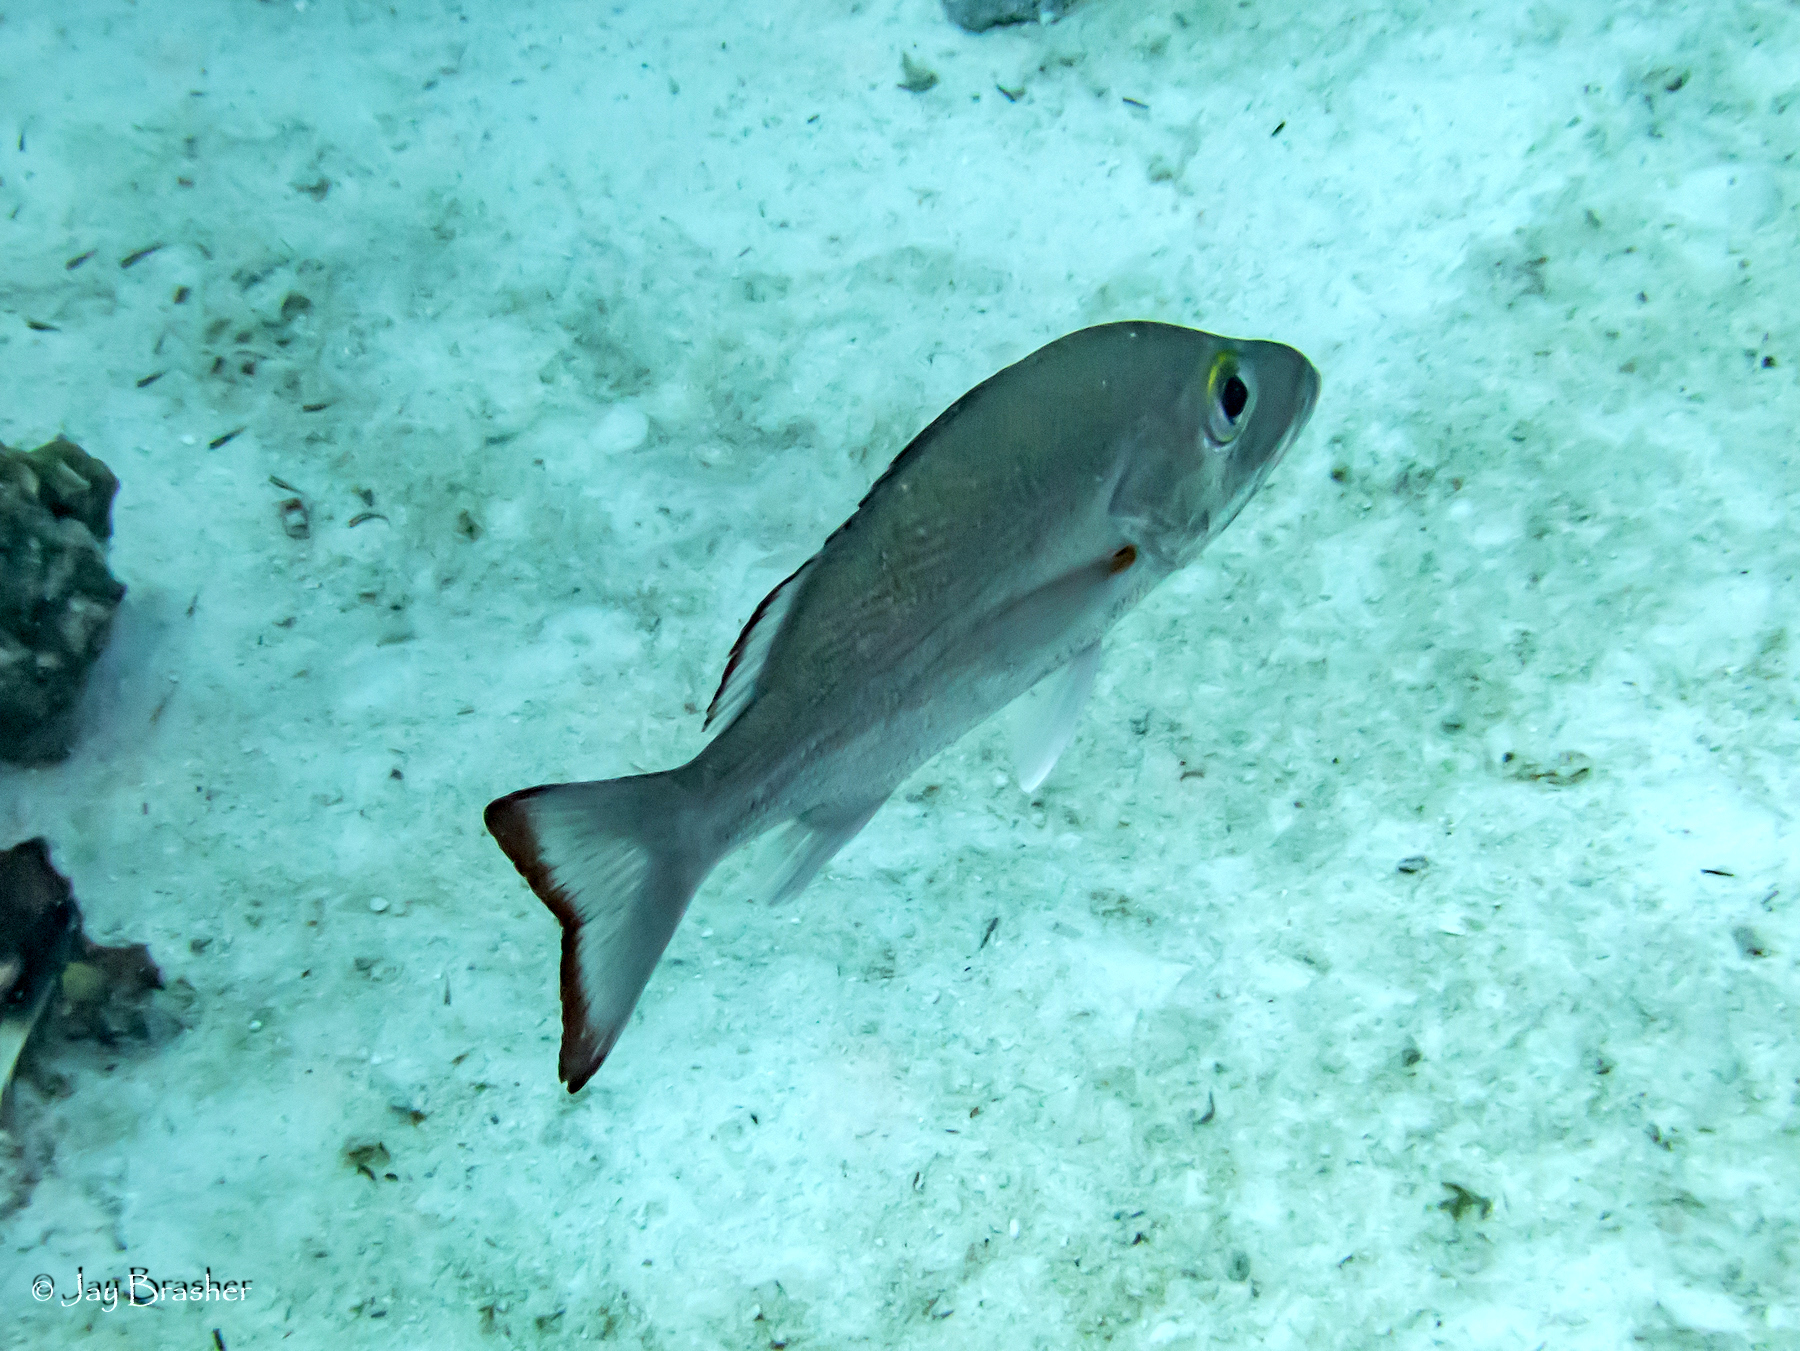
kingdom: Animalia
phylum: Chordata
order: Perciformes
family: Lutjanidae
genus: Lutjanus
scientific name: Lutjanus mahogoni
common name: Spot snapper
